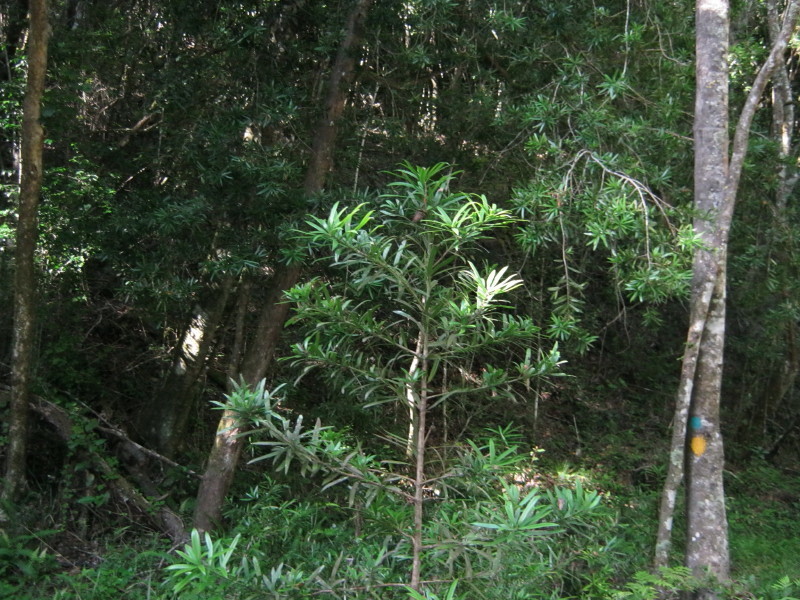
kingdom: Plantae
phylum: Tracheophyta
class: Pinopsida
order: Pinales
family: Podocarpaceae
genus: Podocarpus
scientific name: Podocarpus latifolius
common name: True yellowwood
